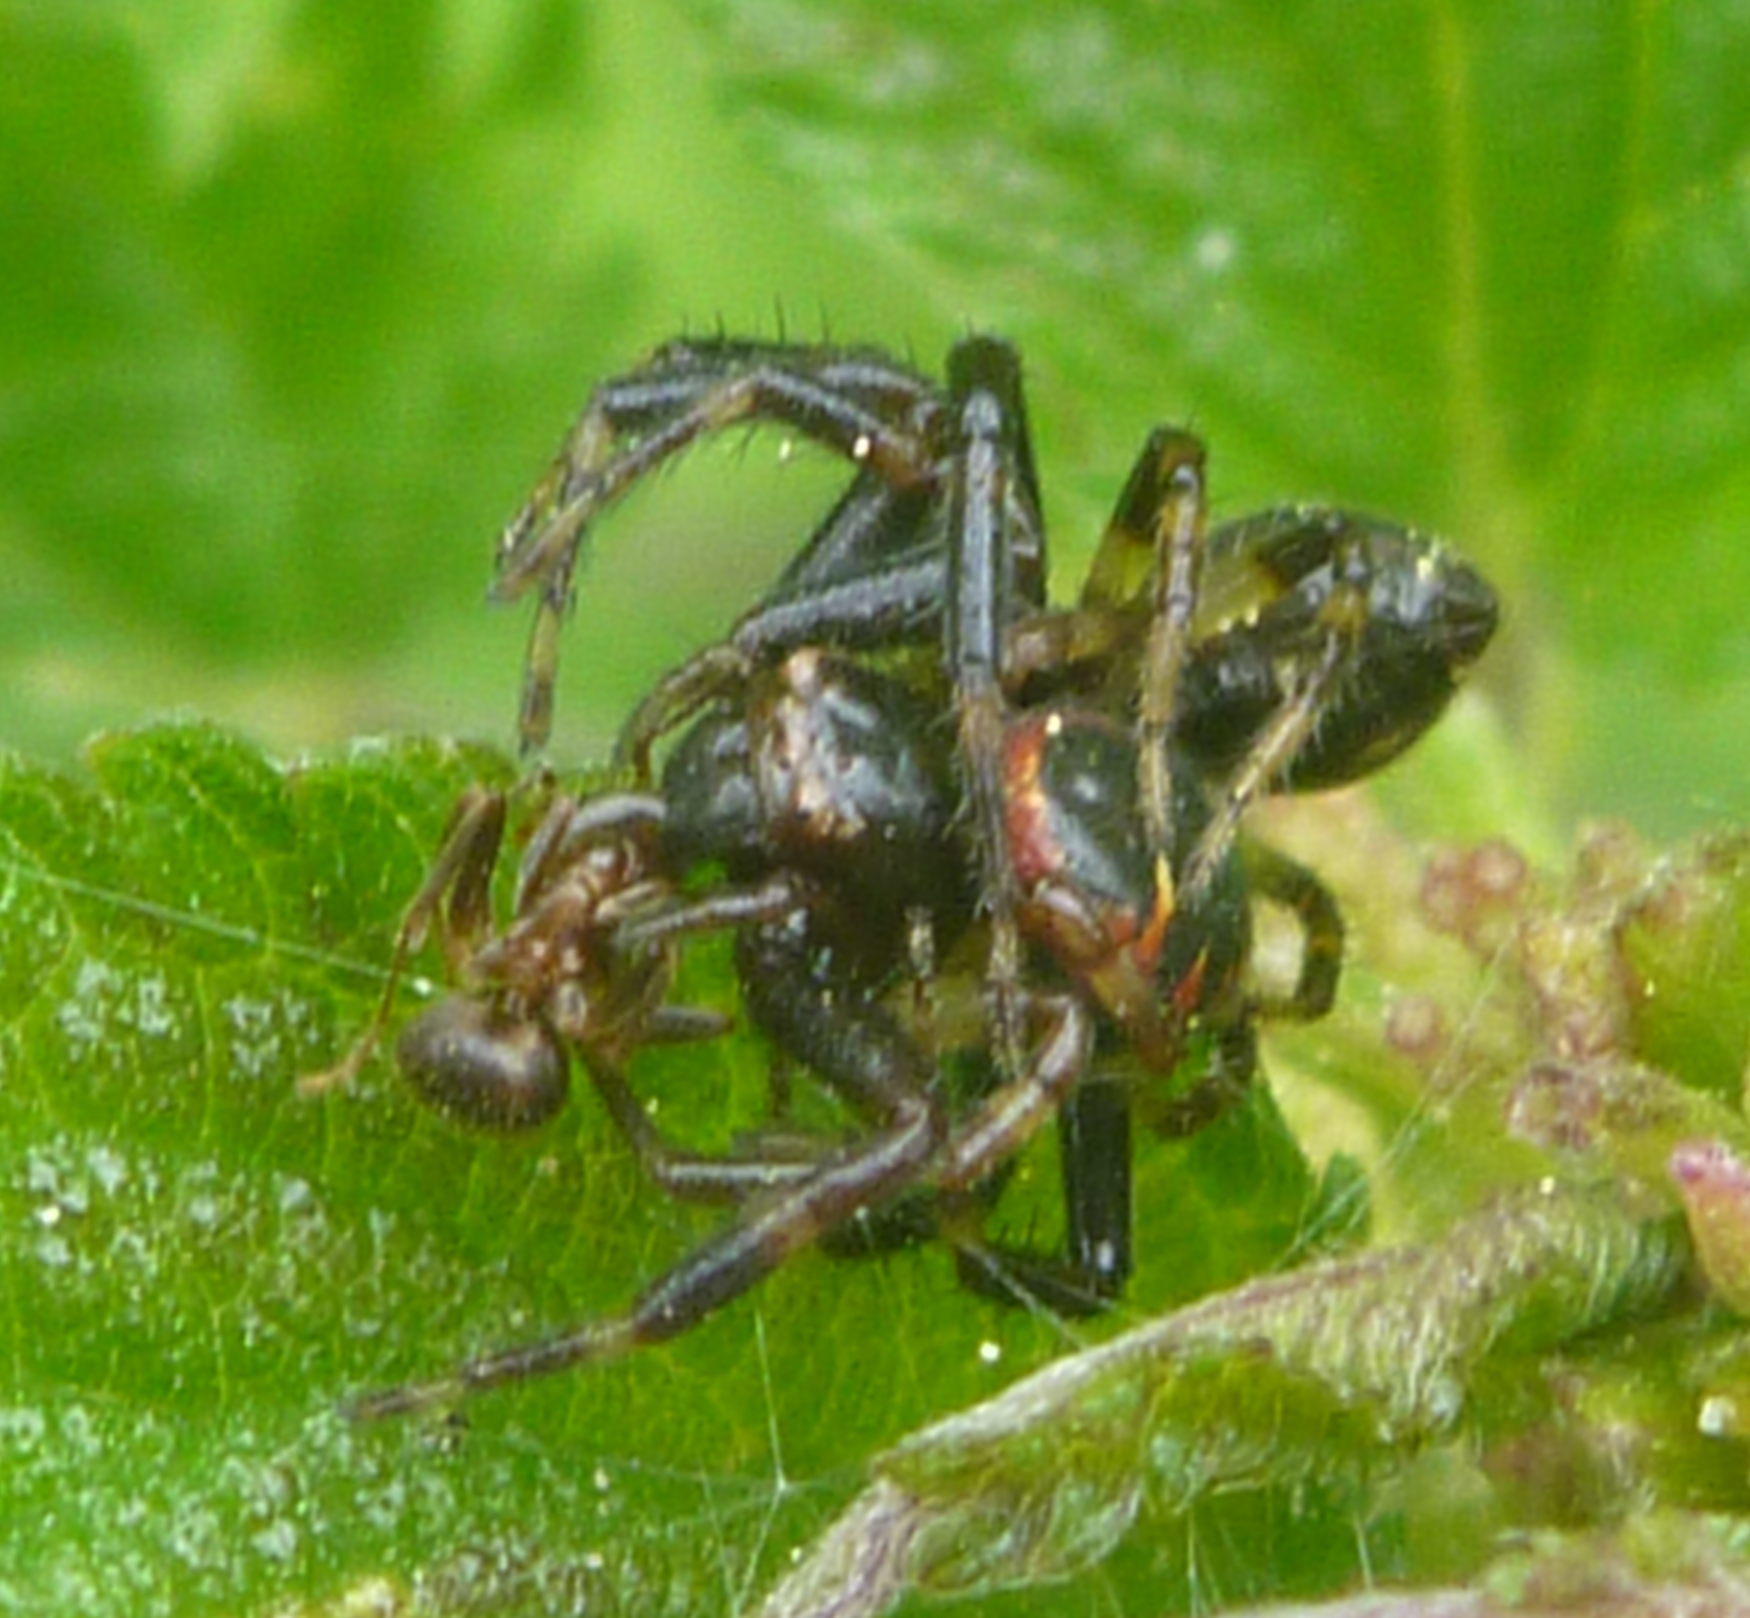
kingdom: Animalia
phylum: Arthropoda
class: Arachnida
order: Araneae
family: Thomisidae
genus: Synema
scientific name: Synema globosum
